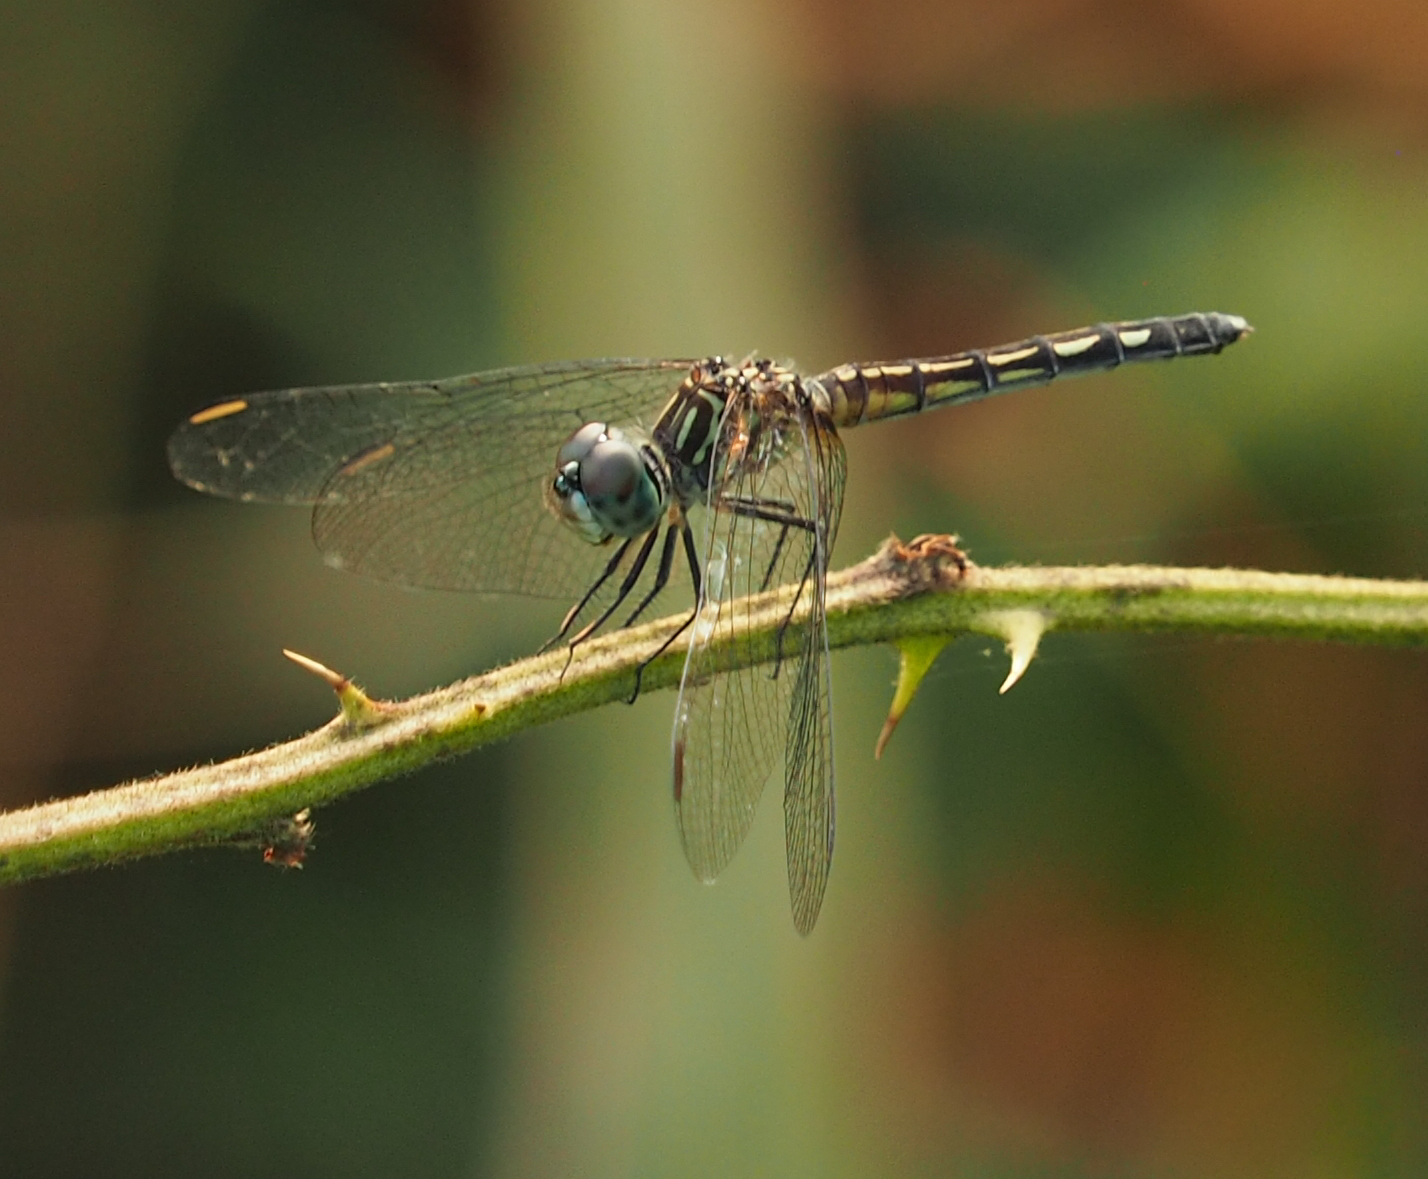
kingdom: Animalia
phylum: Arthropoda
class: Insecta
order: Odonata
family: Libellulidae
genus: Pachydiplax
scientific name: Pachydiplax longipennis
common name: Blue dasher
